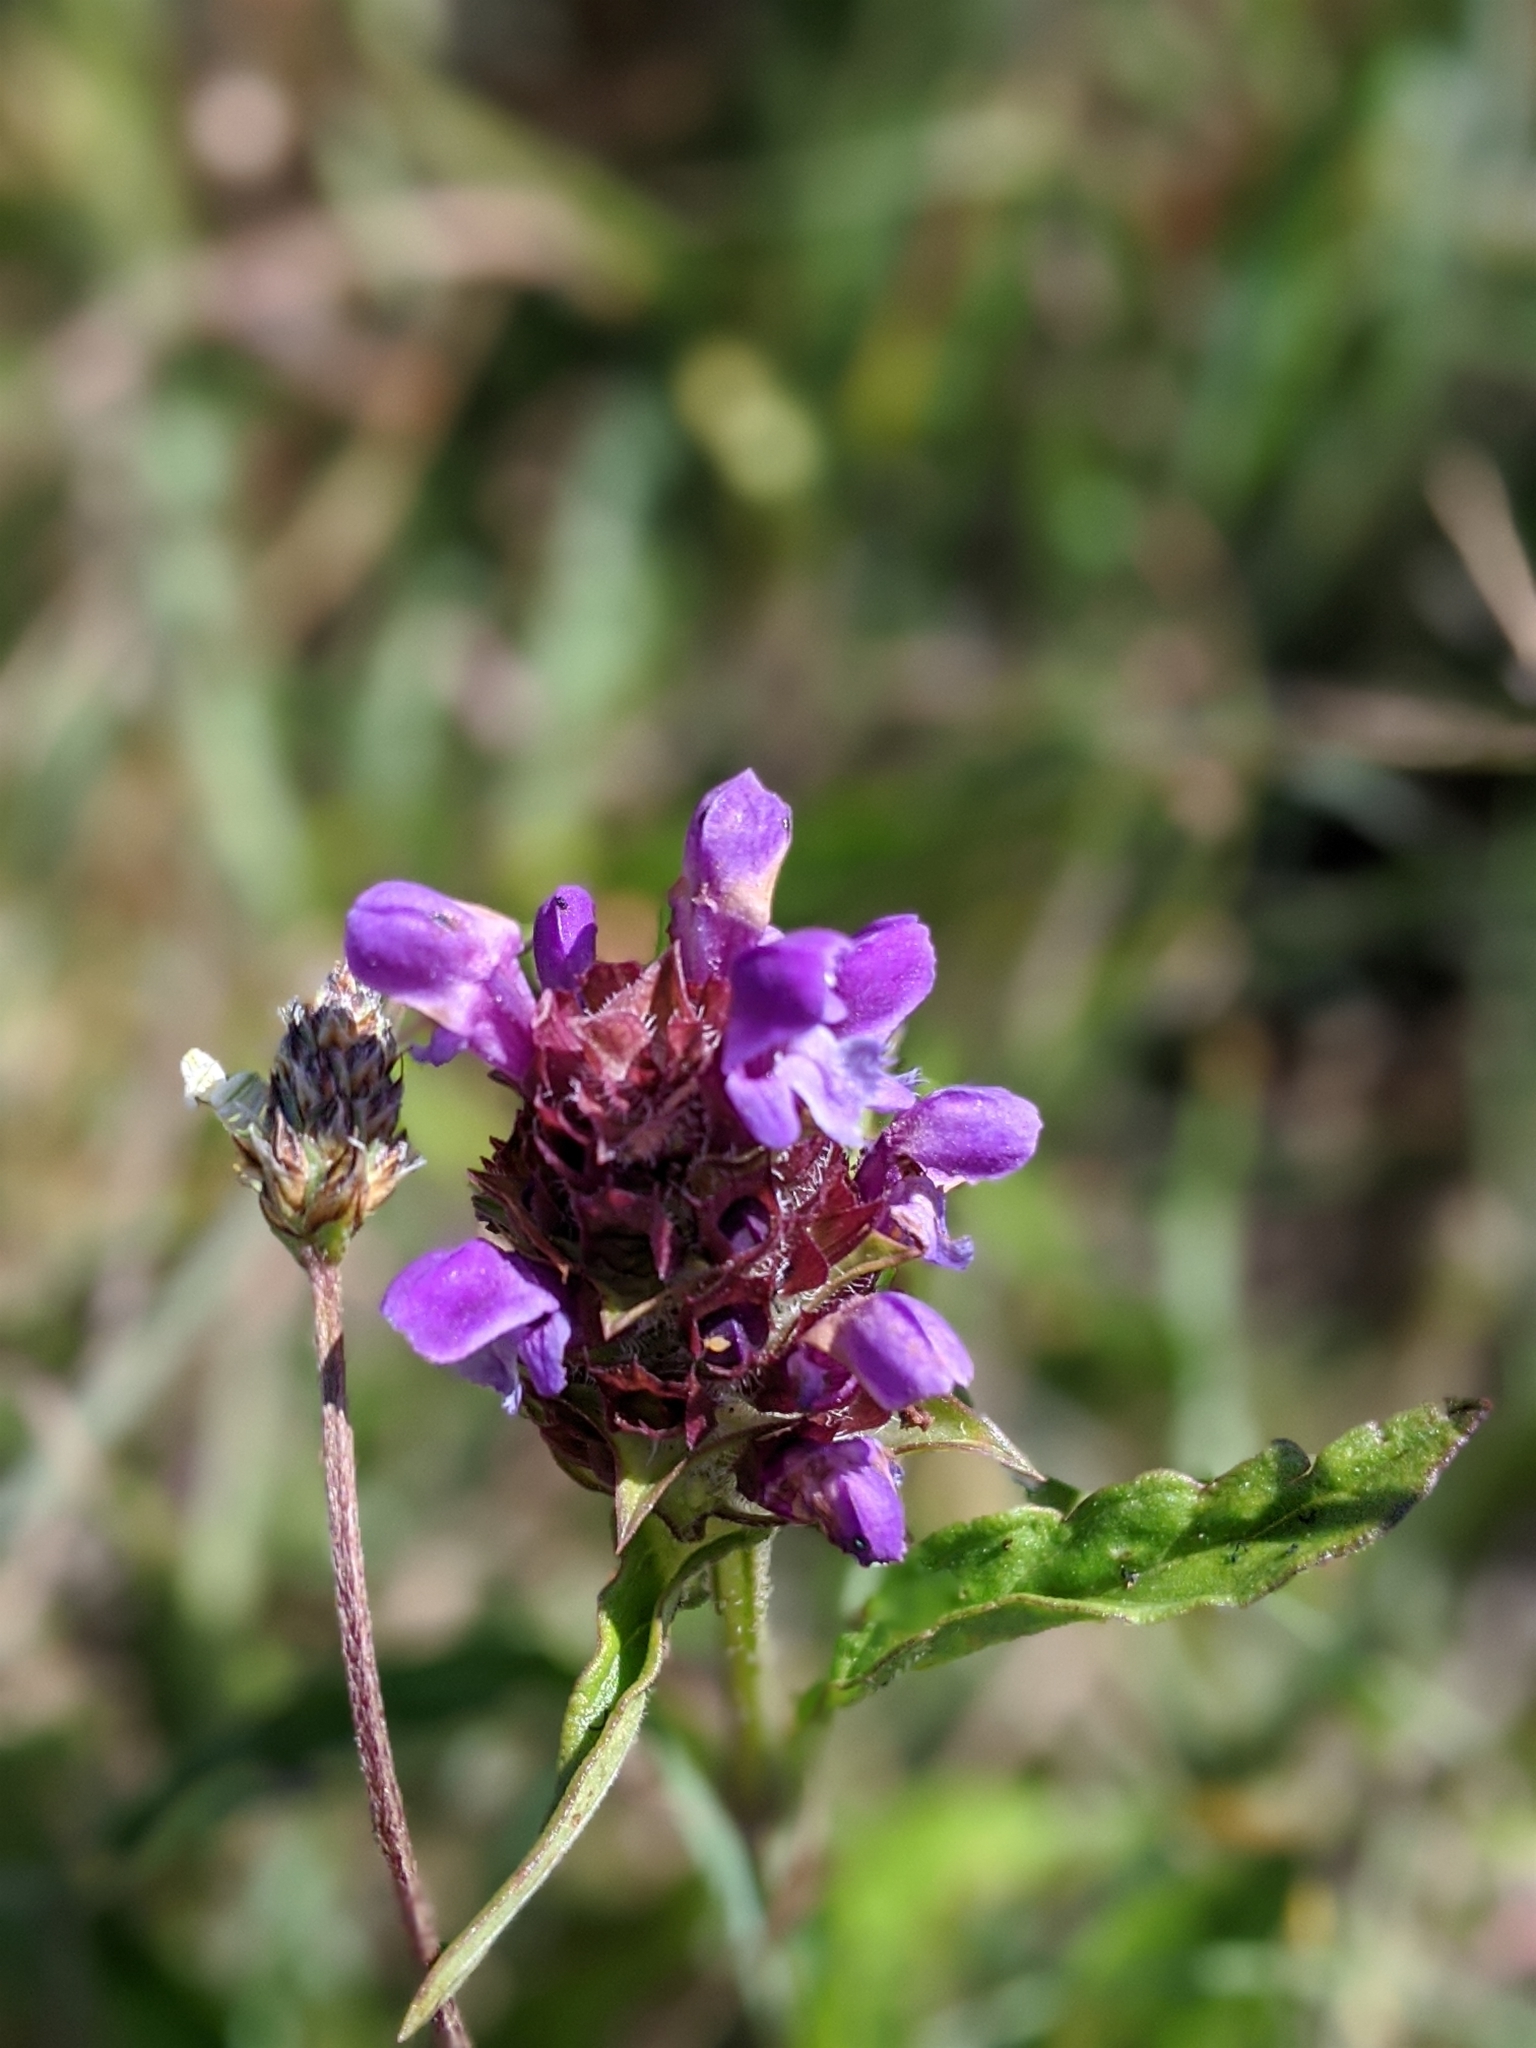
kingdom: Plantae
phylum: Tracheophyta
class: Magnoliopsida
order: Lamiales
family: Lamiaceae
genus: Prunella
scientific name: Prunella vulgaris
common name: Heal-all
